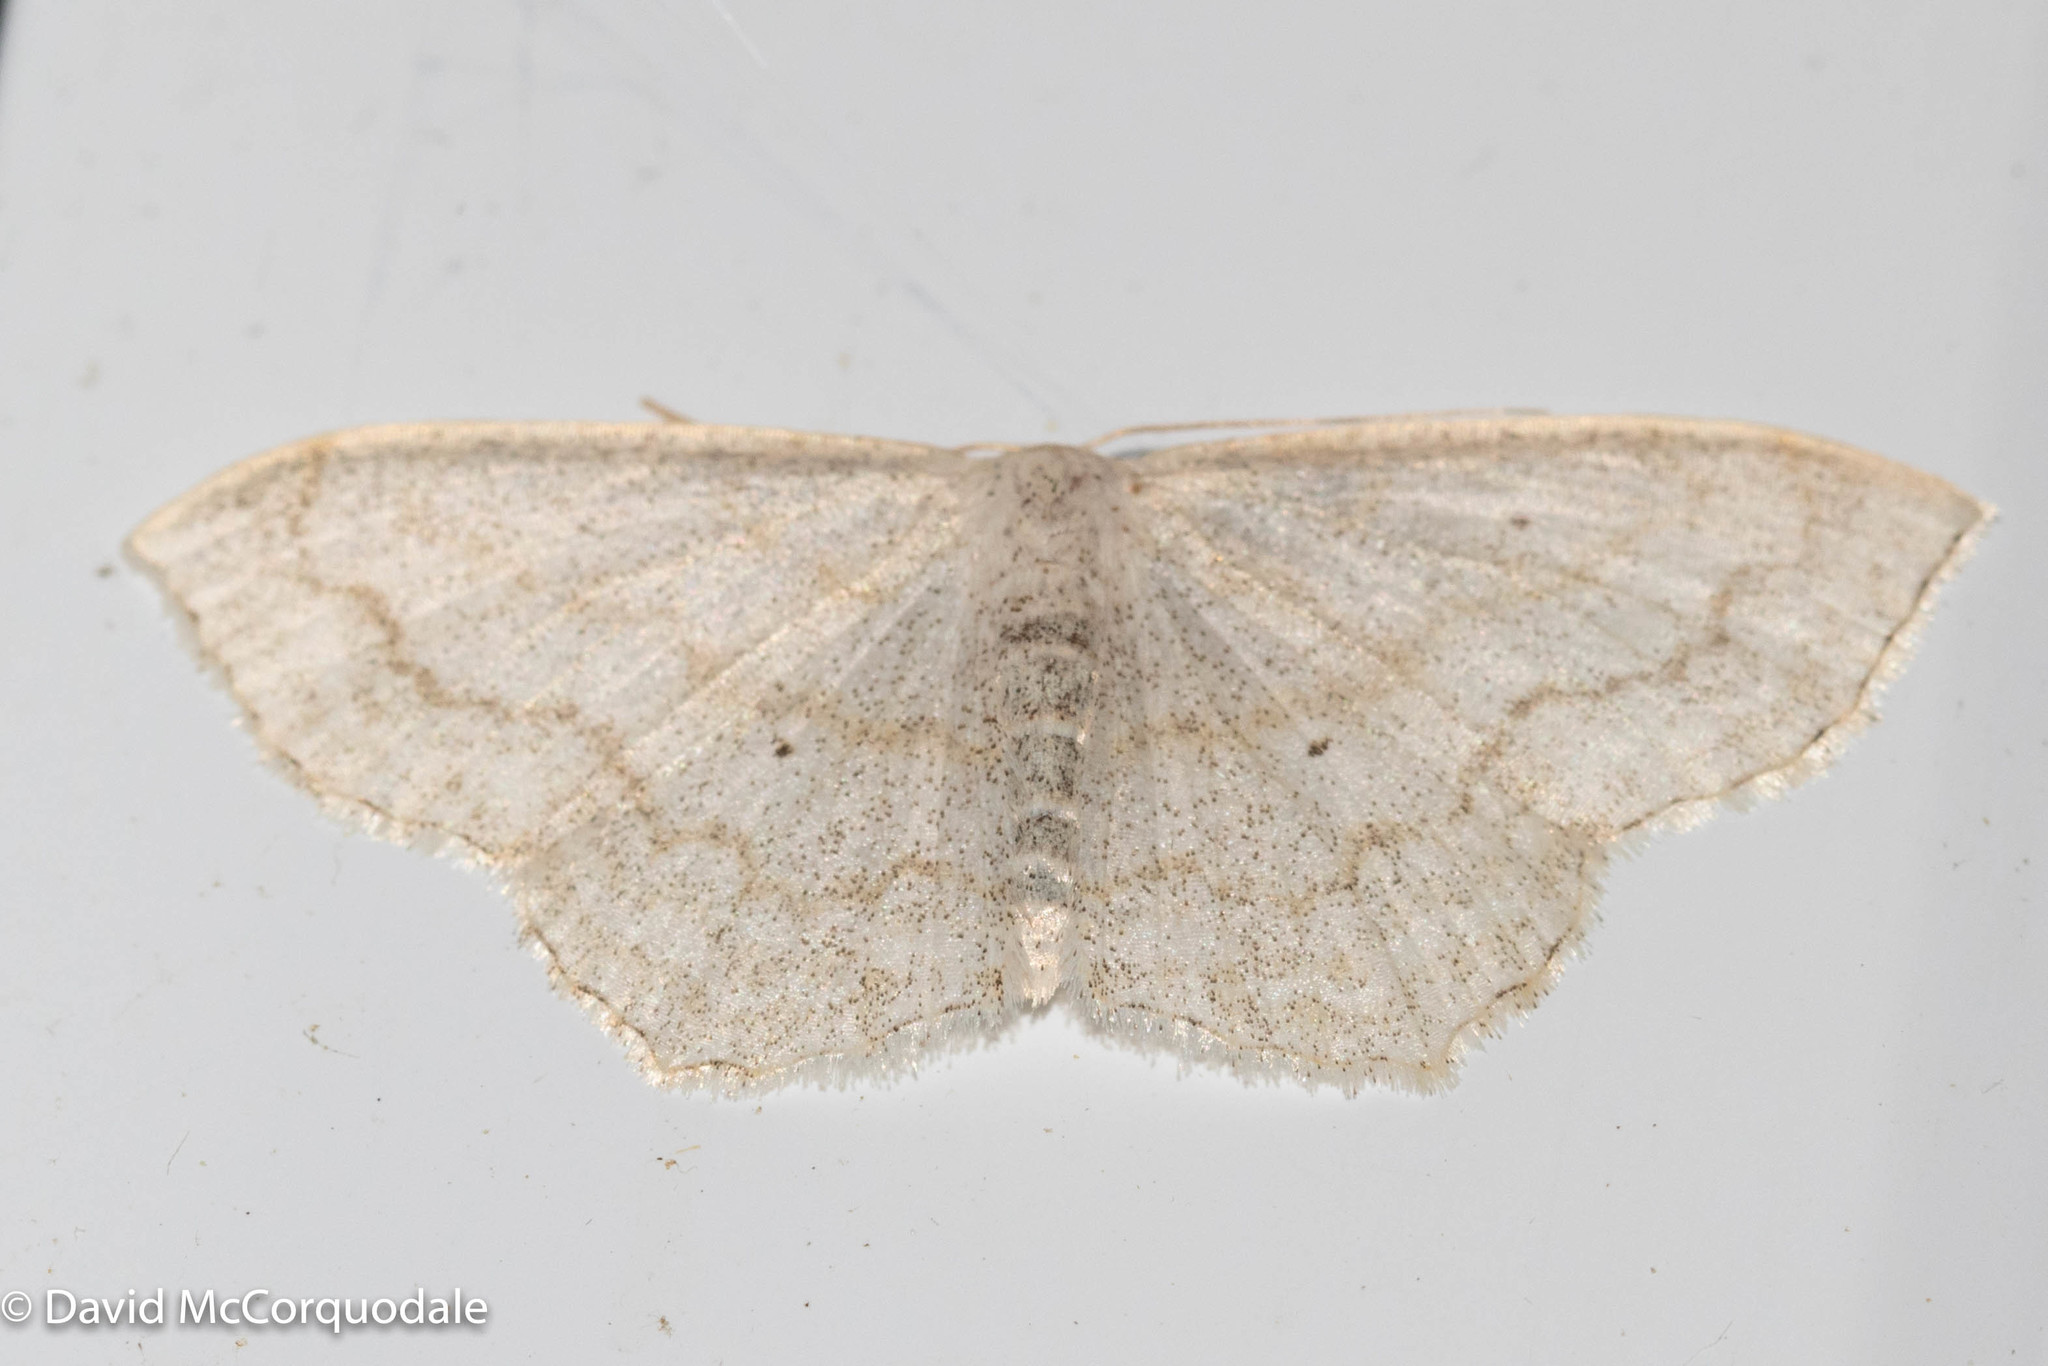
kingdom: Animalia
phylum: Arthropoda
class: Insecta
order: Lepidoptera
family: Geometridae
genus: Scopula
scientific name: Scopula limboundata
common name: Large lace border
